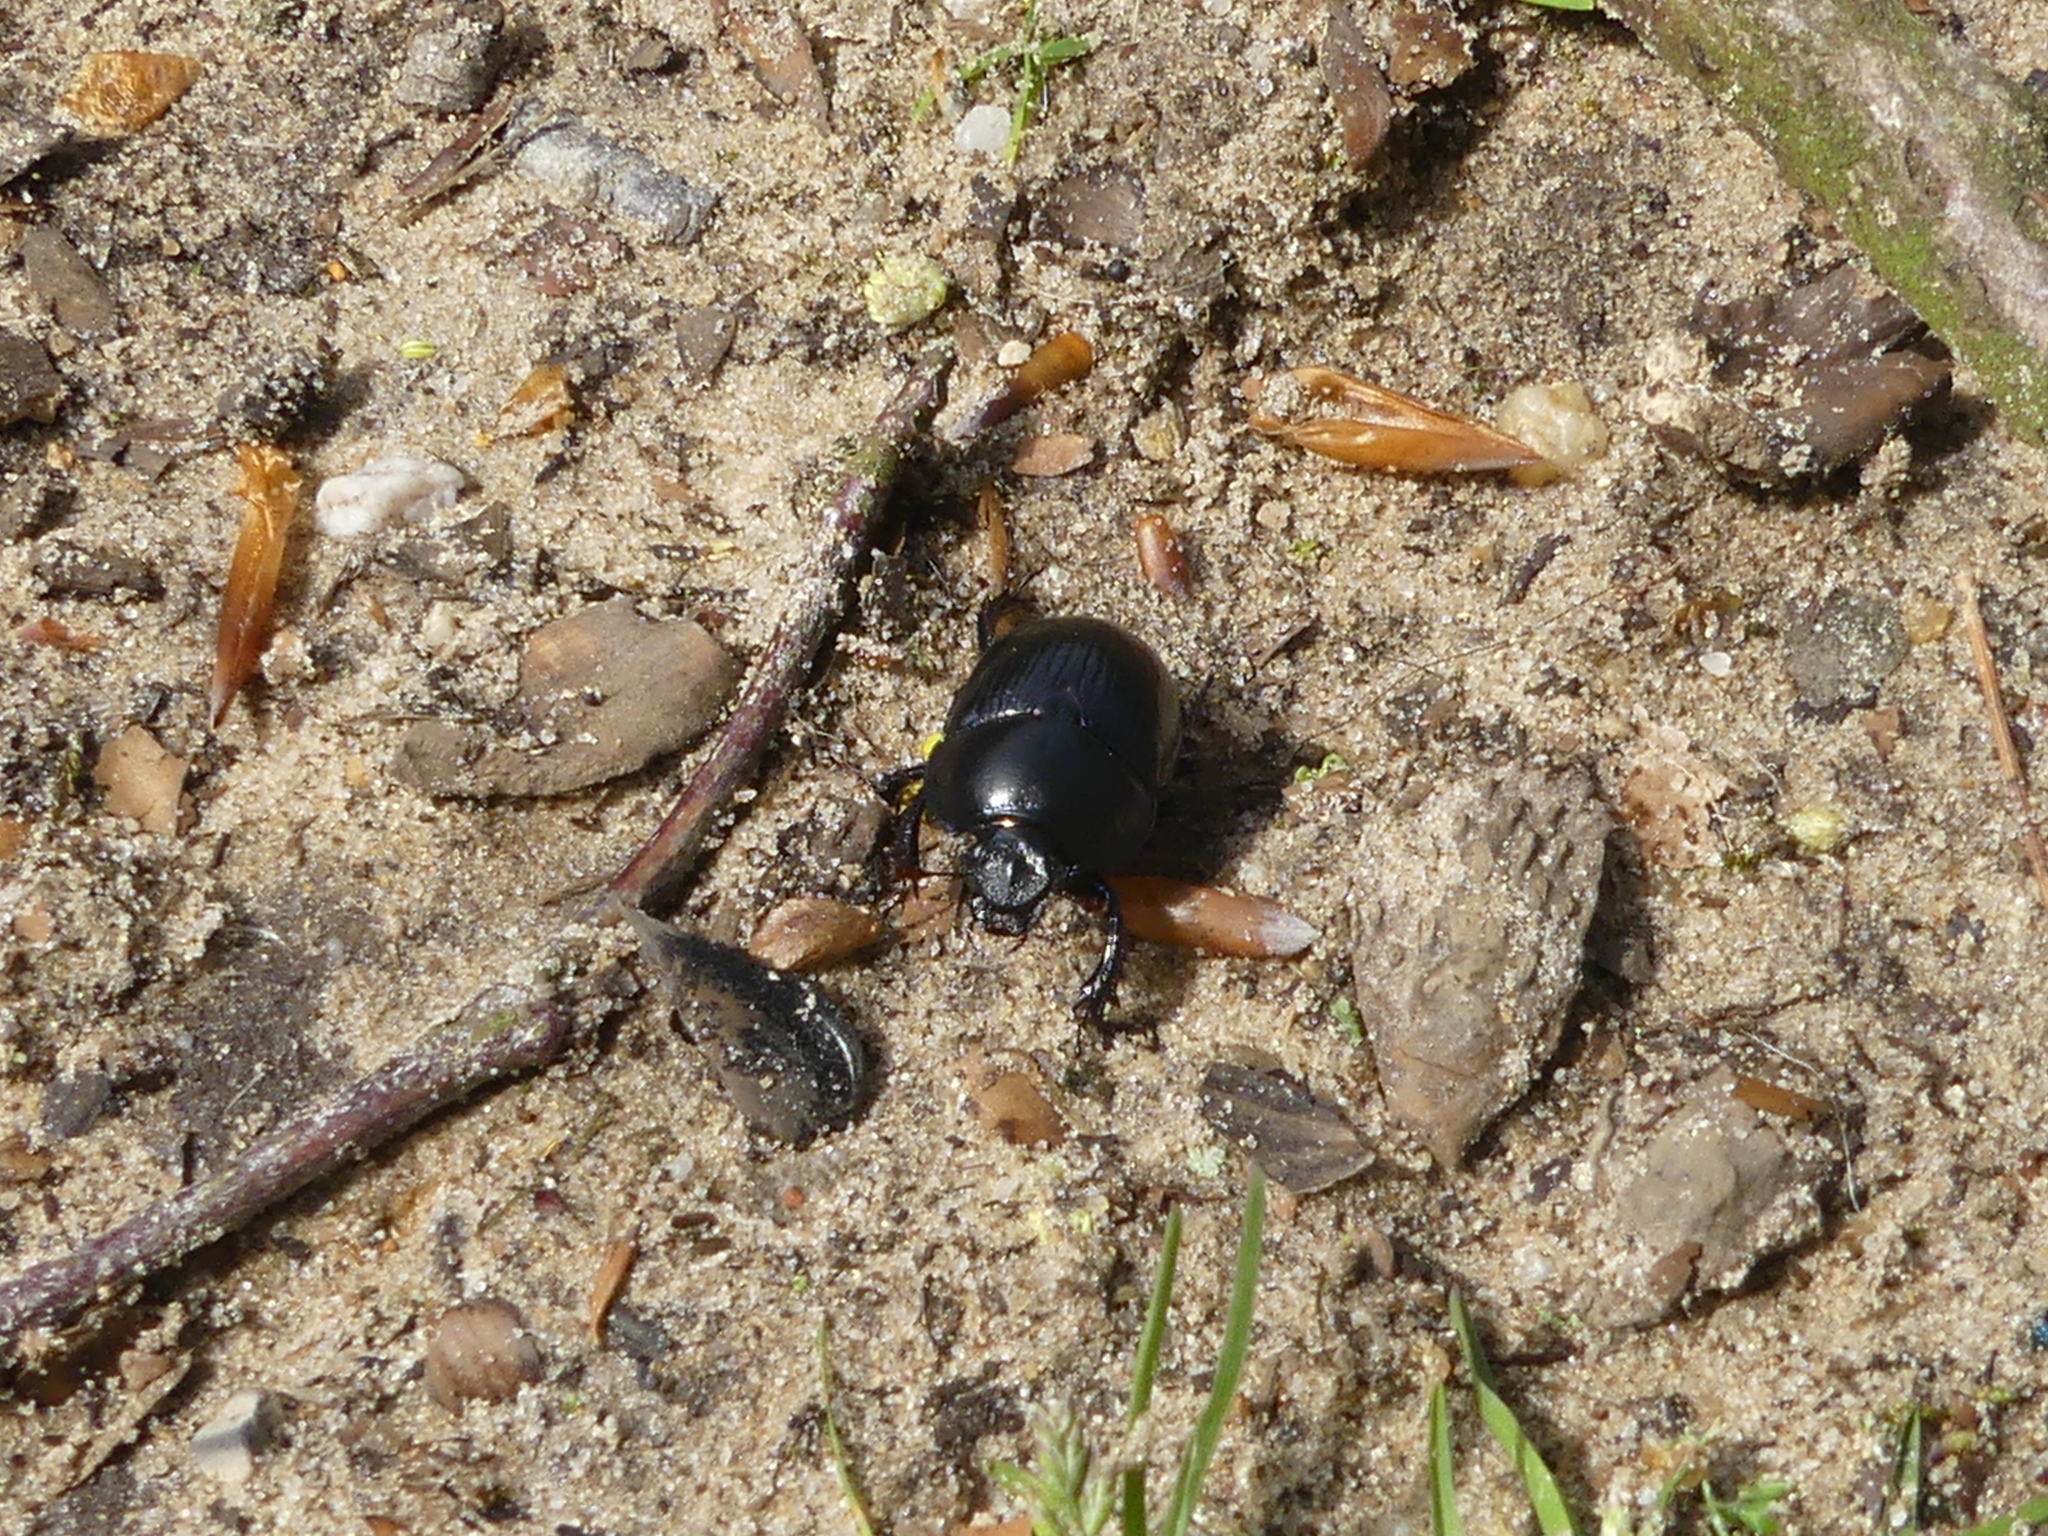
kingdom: Animalia
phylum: Arthropoda
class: Insecta
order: Coleoptera
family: Geotrupidae
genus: Anoplotrupes
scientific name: Anoplotrupes stercorosus
